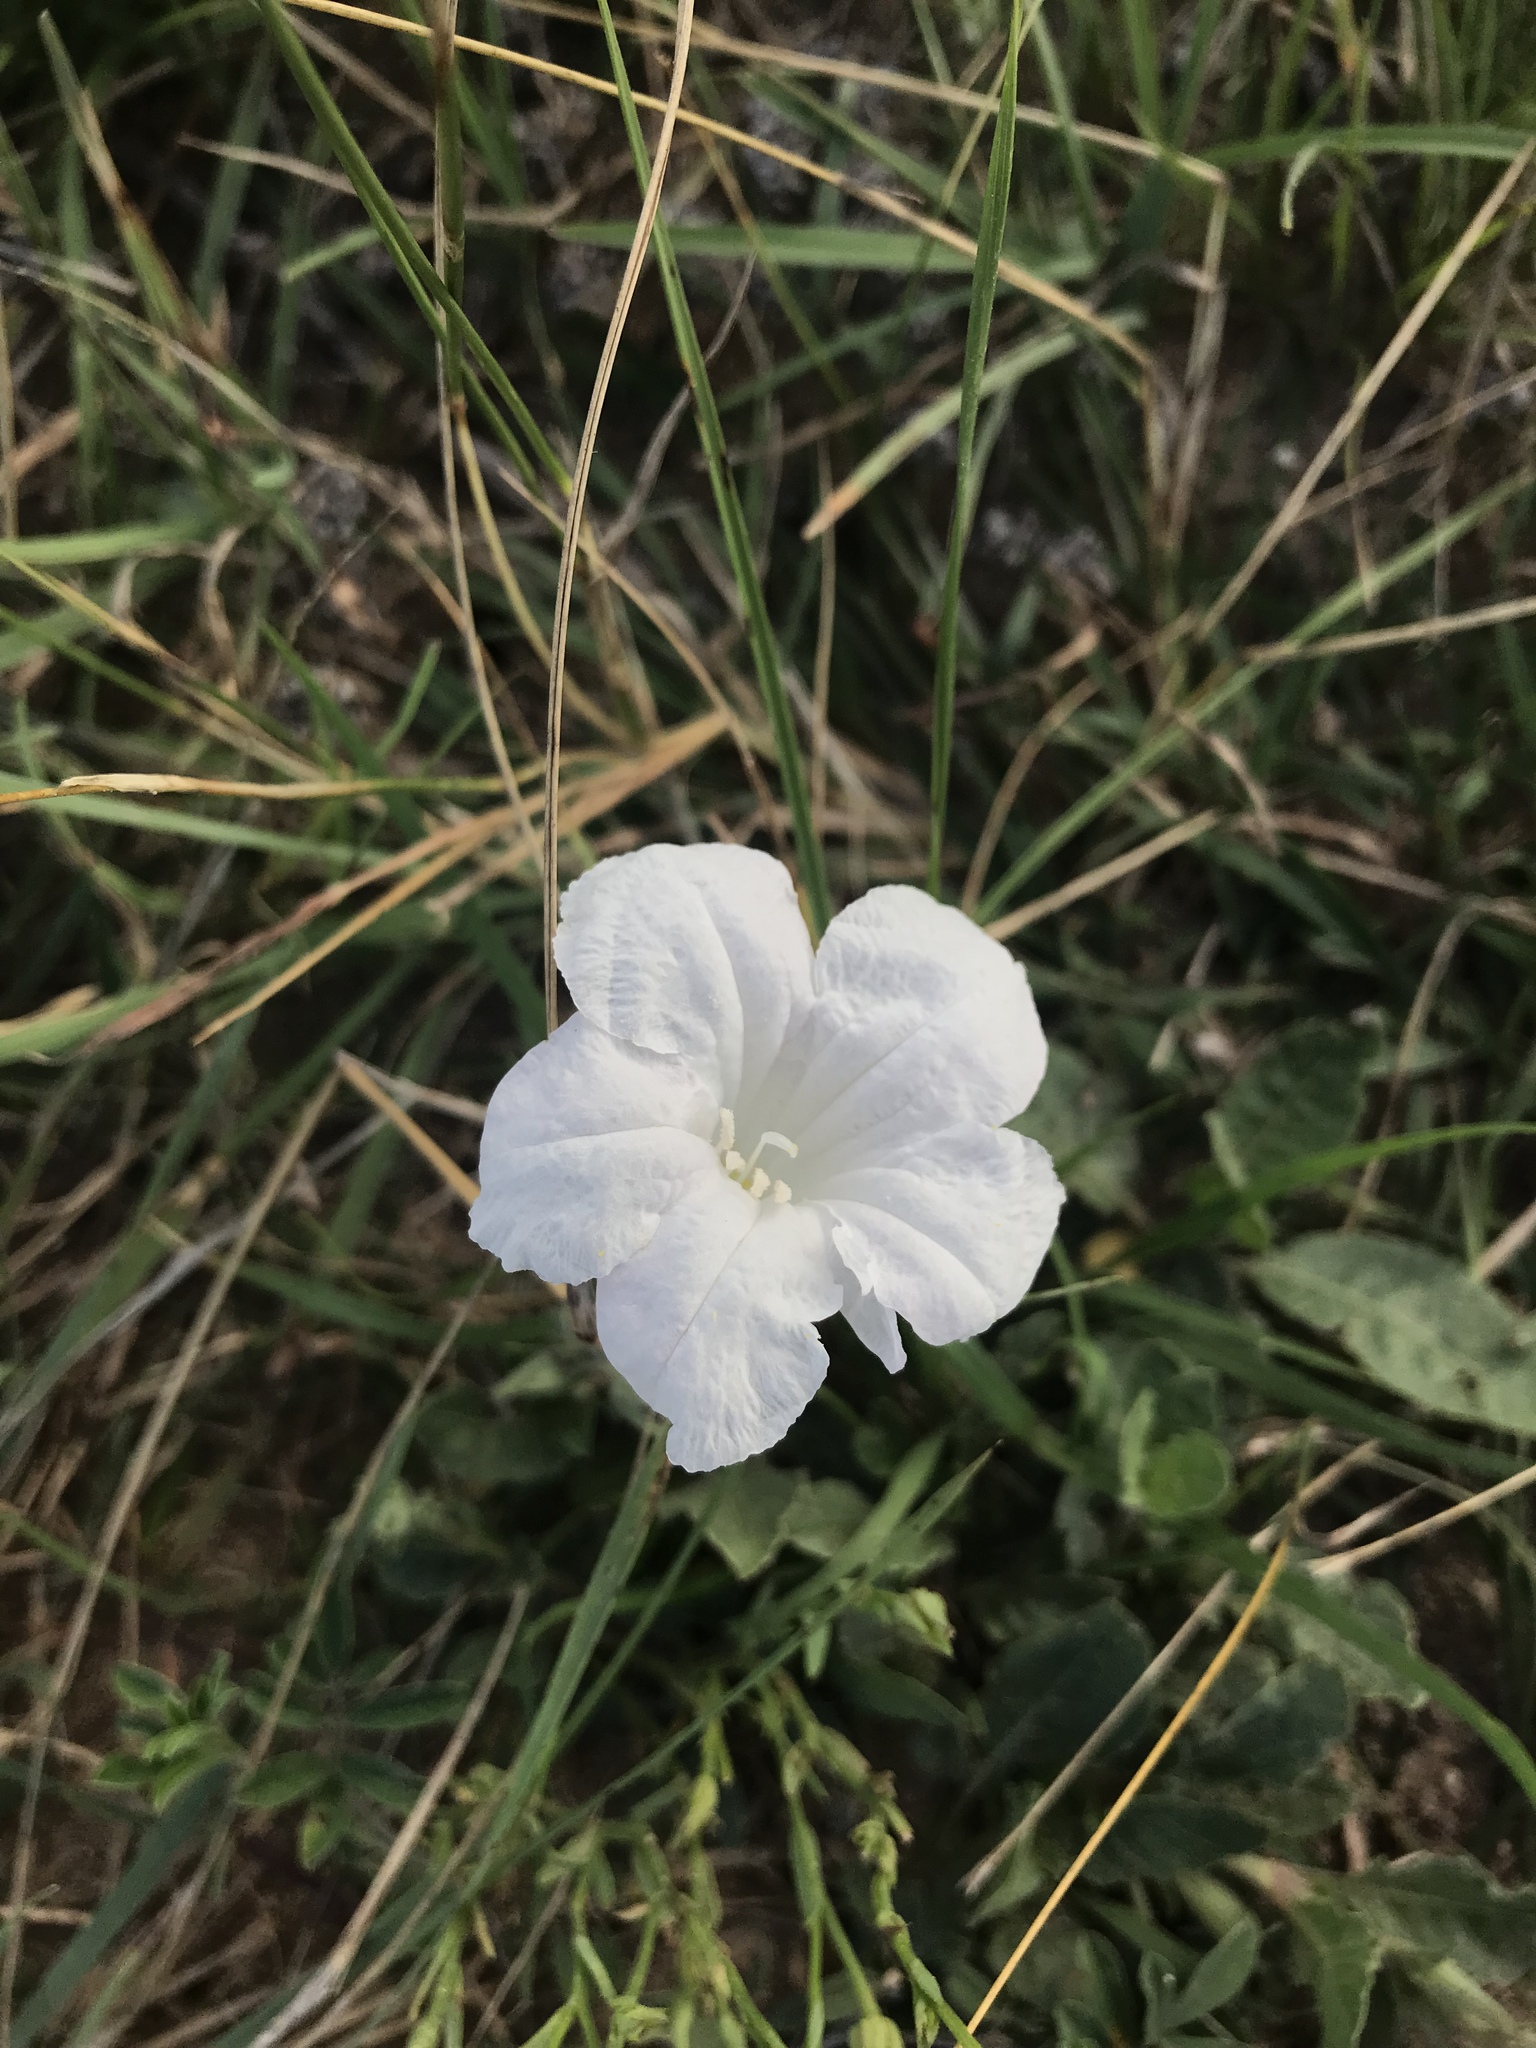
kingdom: Plantae
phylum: Tracheophyta
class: Magnoliopsida
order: Lamiales
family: Acanthaceae
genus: Ruellia
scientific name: Ruellia metziae
